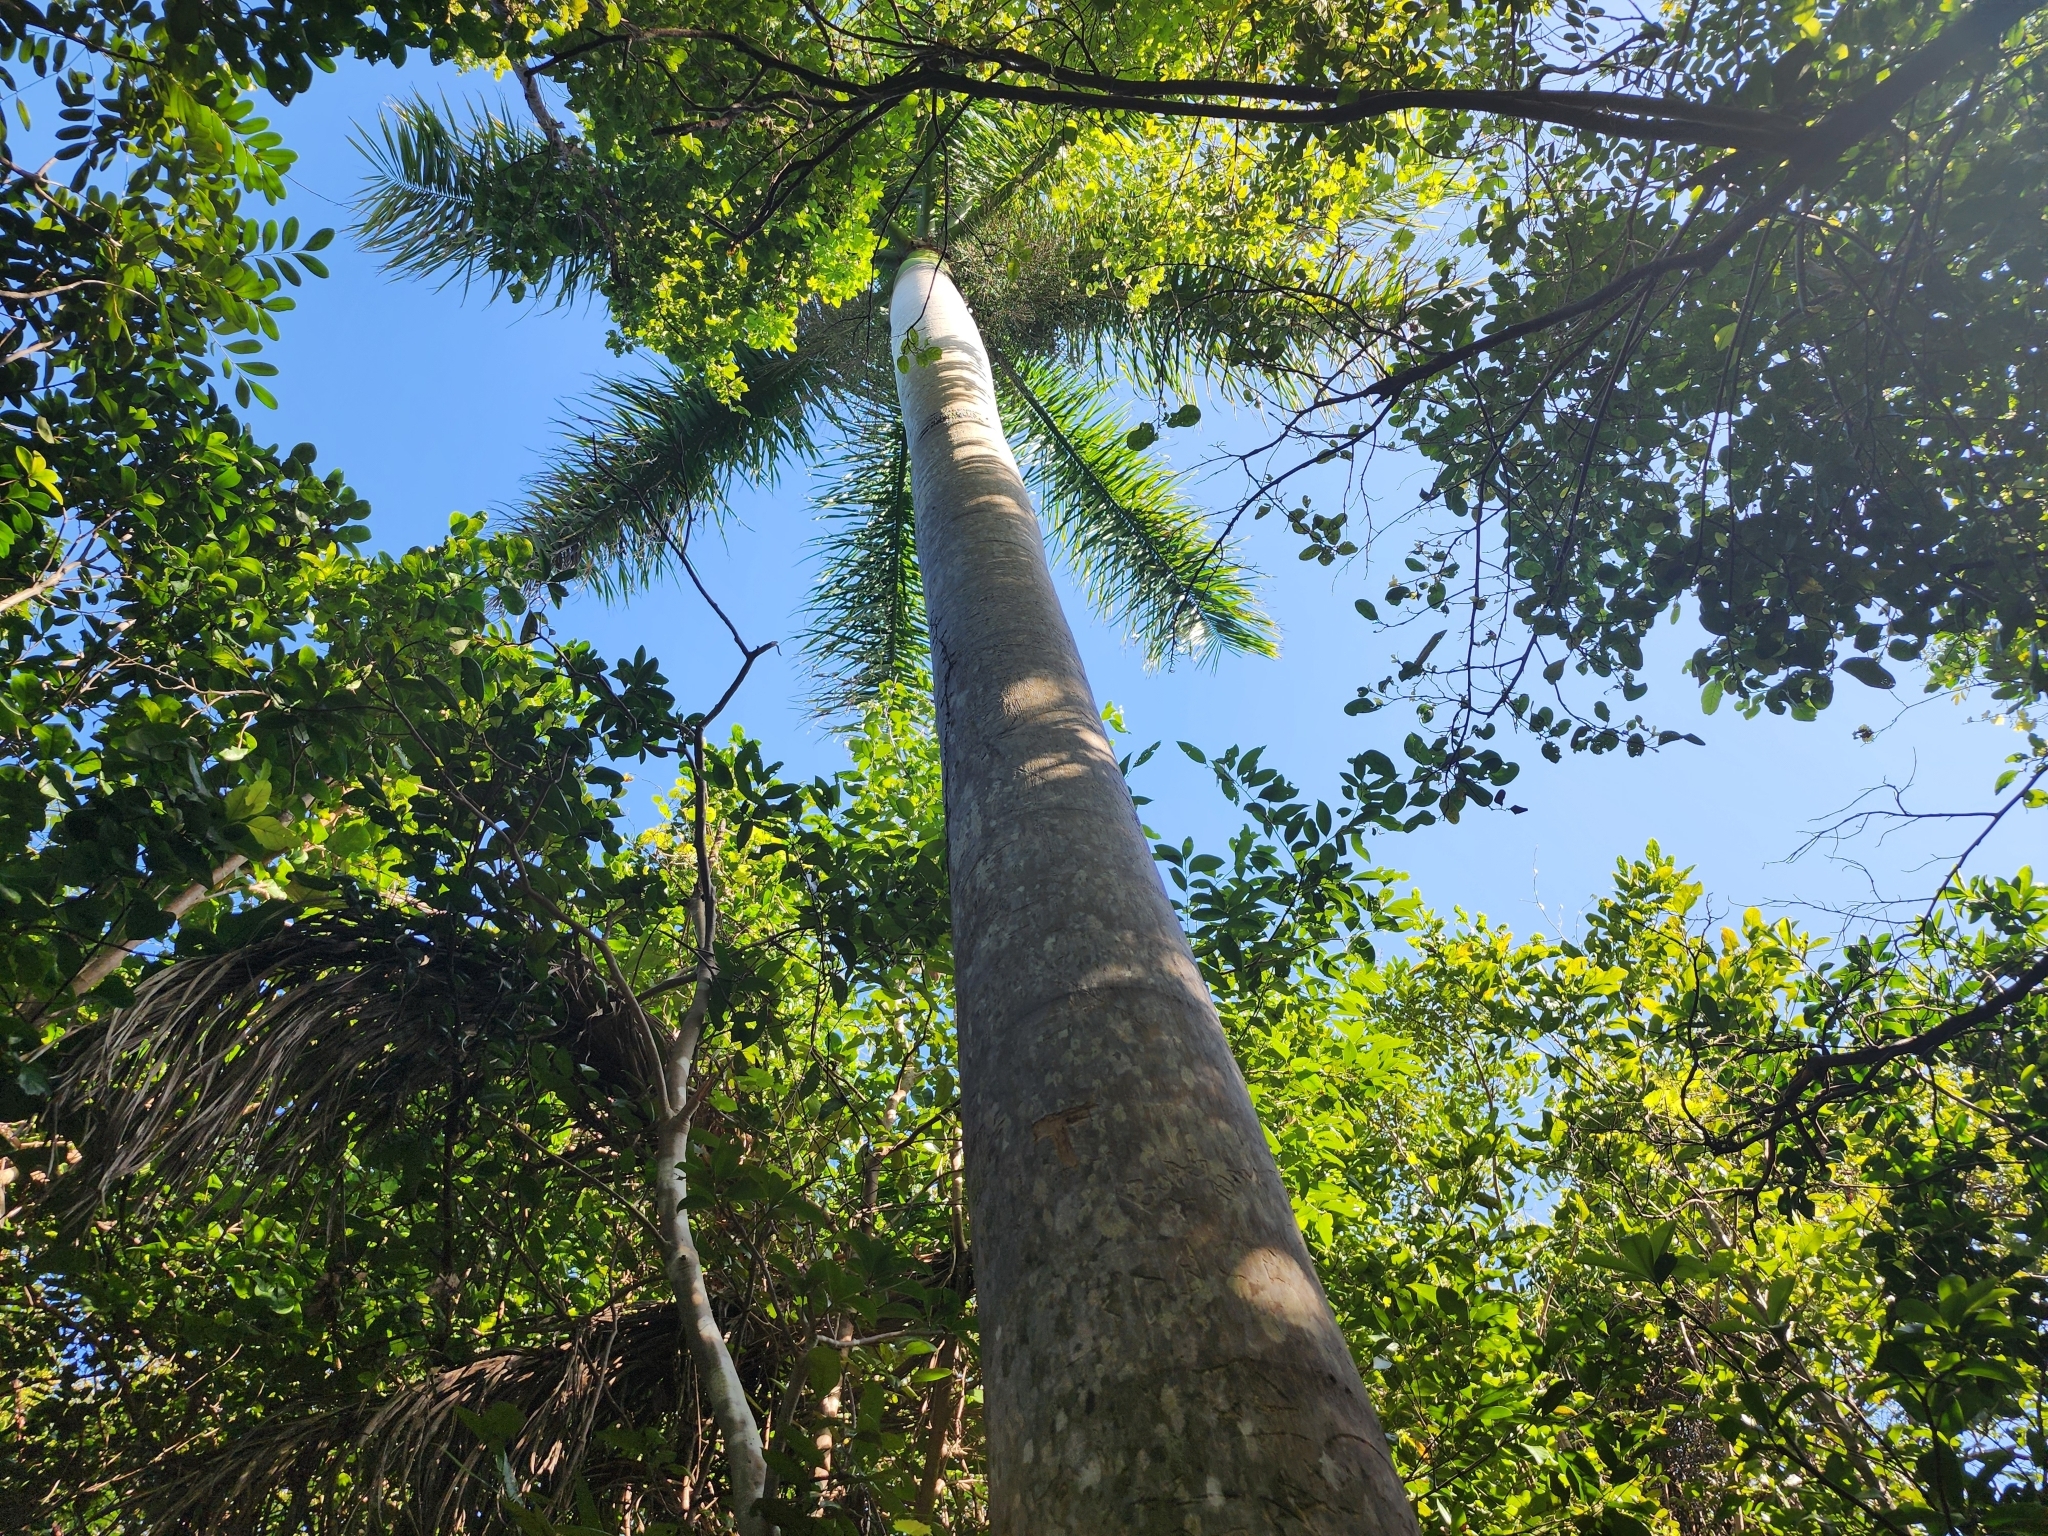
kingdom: Plantae
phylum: Tracheophyta
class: Liliopsida
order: Arecales
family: Arecaceae
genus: Roystonea
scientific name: Roystonea regia
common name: Florida royal palm
